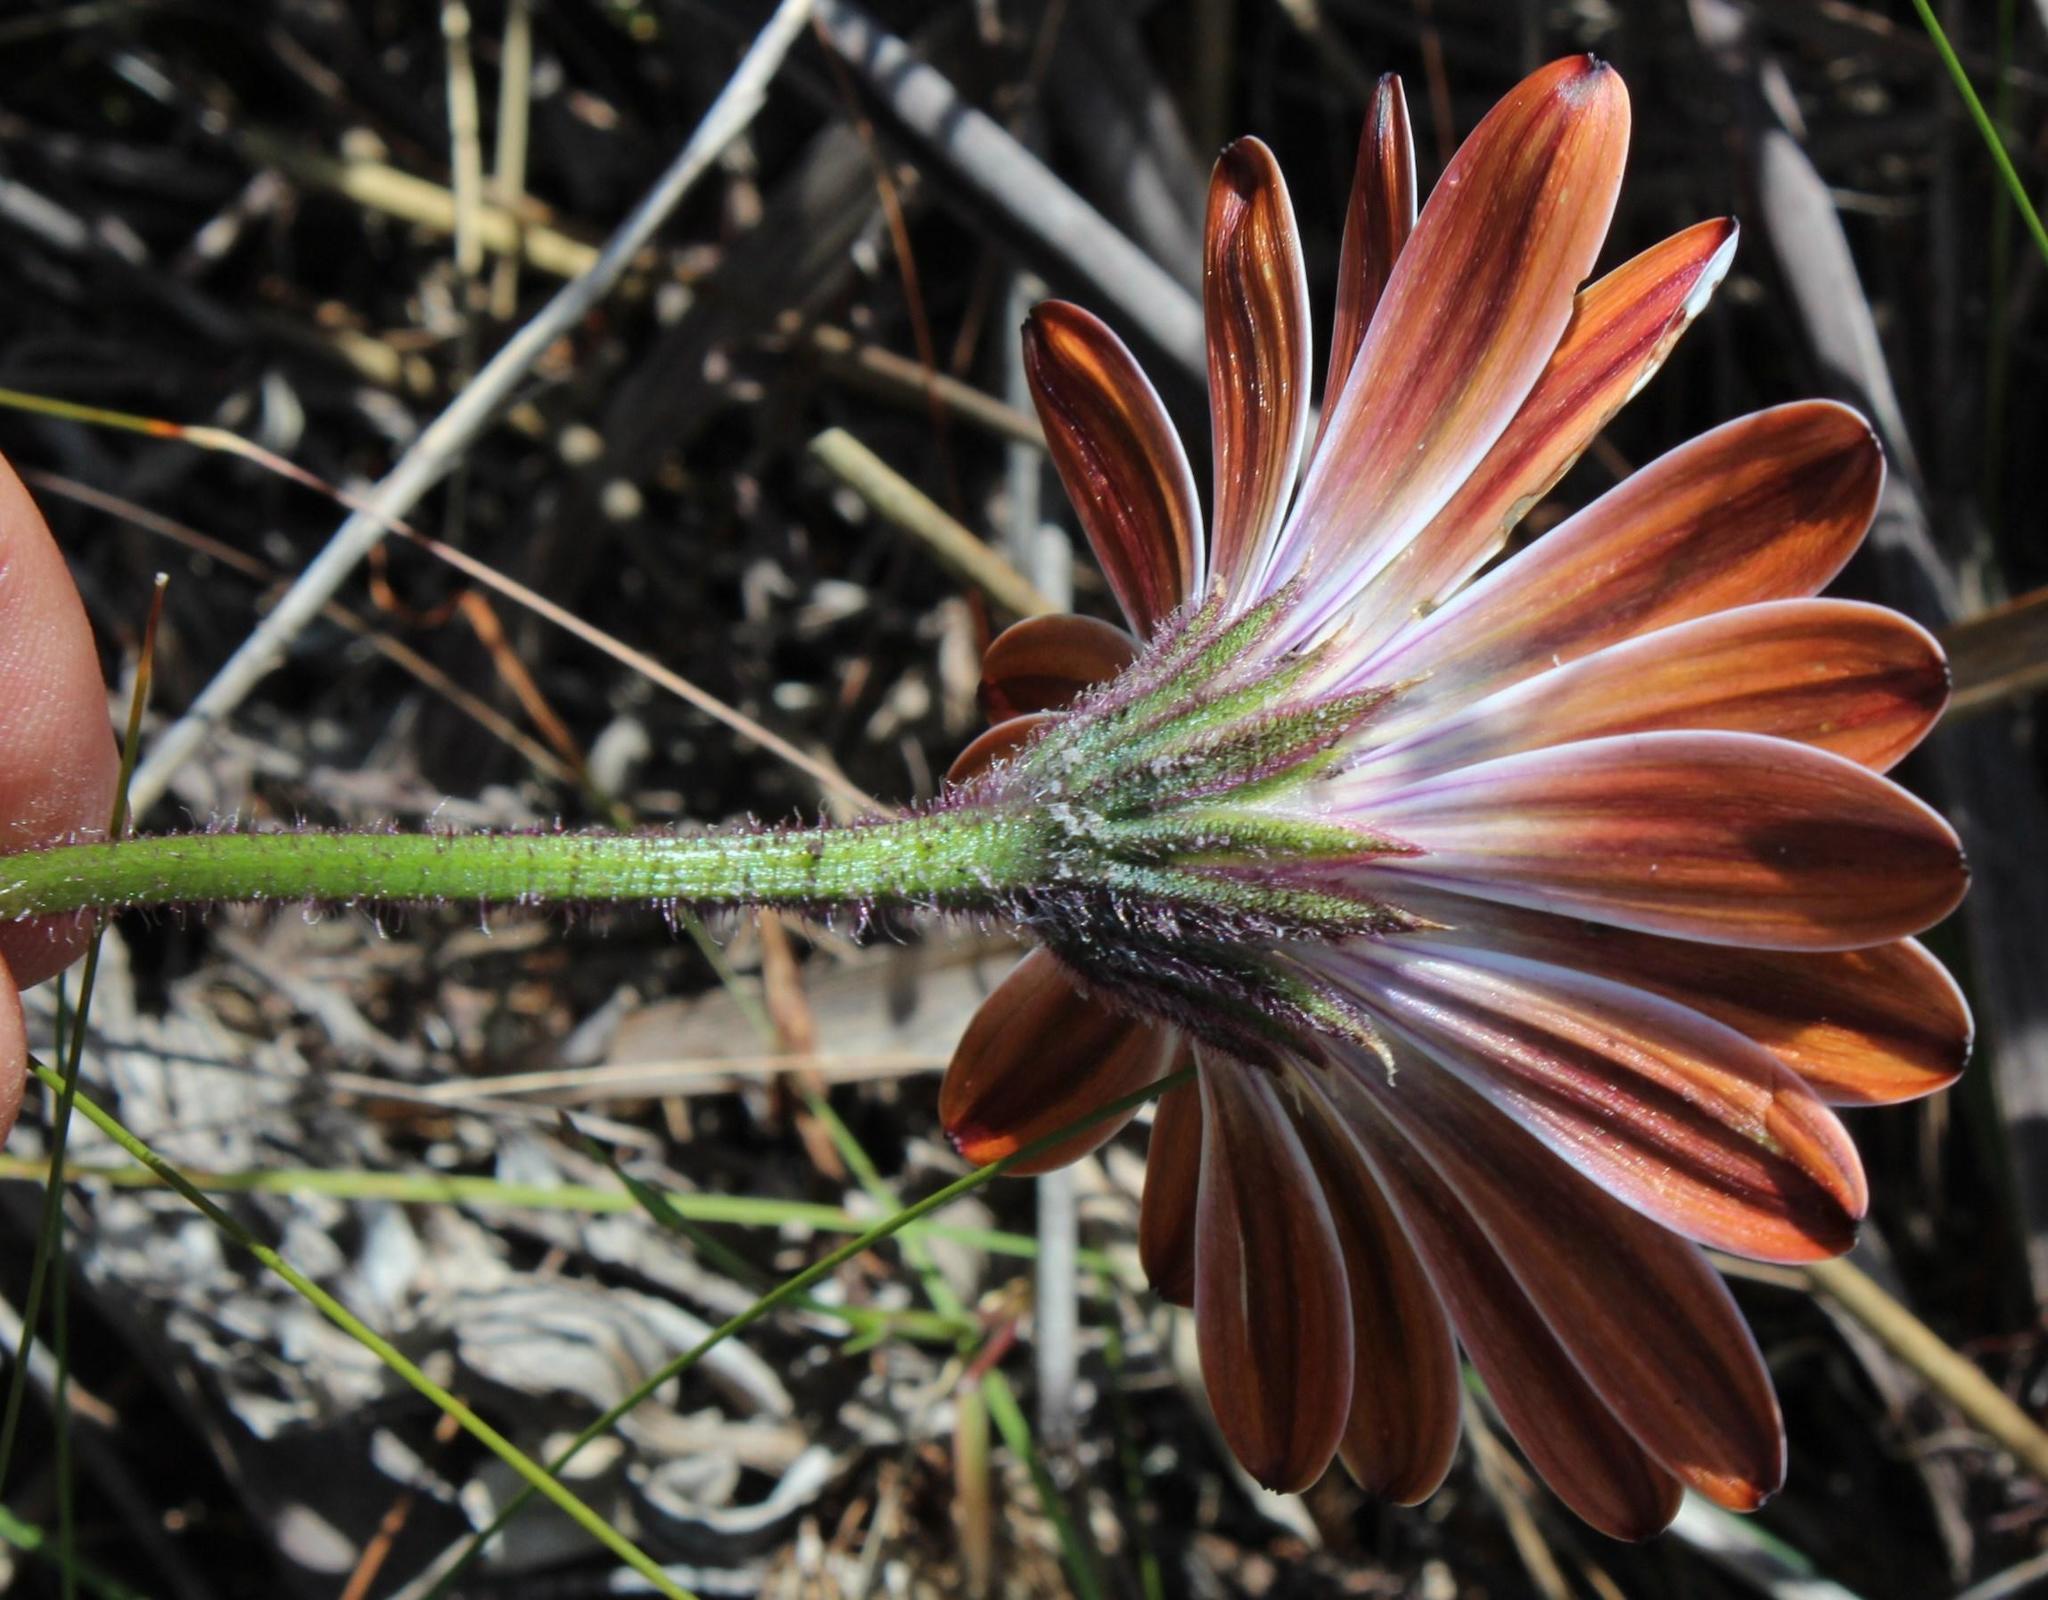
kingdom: Plantae
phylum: Tracheophyta
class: Magnoliopsida
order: Asterales
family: Asteraceae
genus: Dimorphotheca
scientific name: Dimorphotheca nudicaulis
